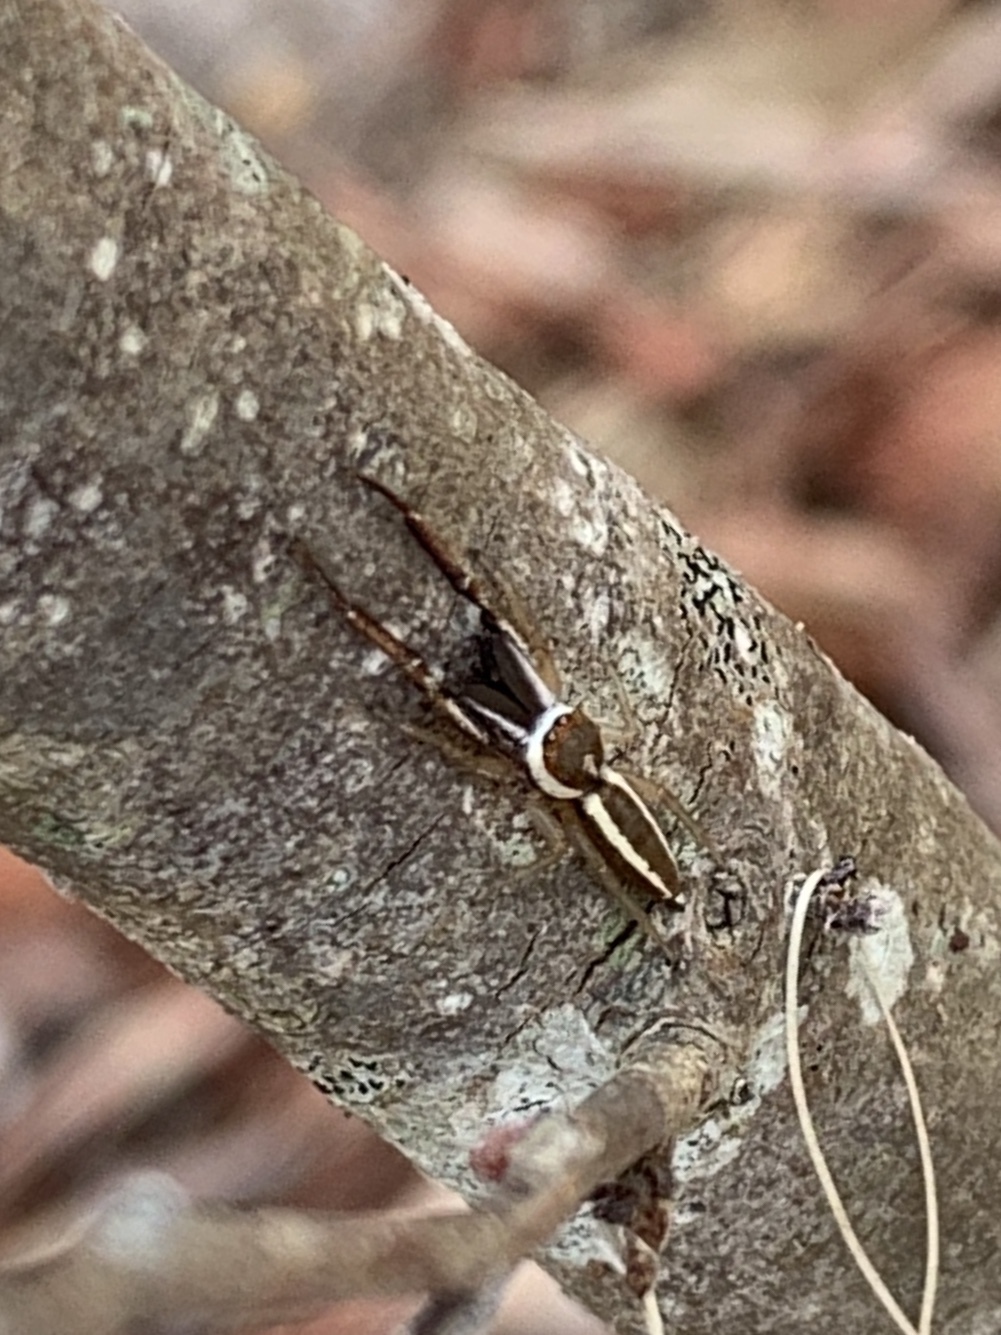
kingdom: Animalia
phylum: Arthropoda
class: Arachnida
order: Araneae
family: Salticidae
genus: Hentzia
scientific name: Hentzia palmarum
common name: Common hentz jumping spider
